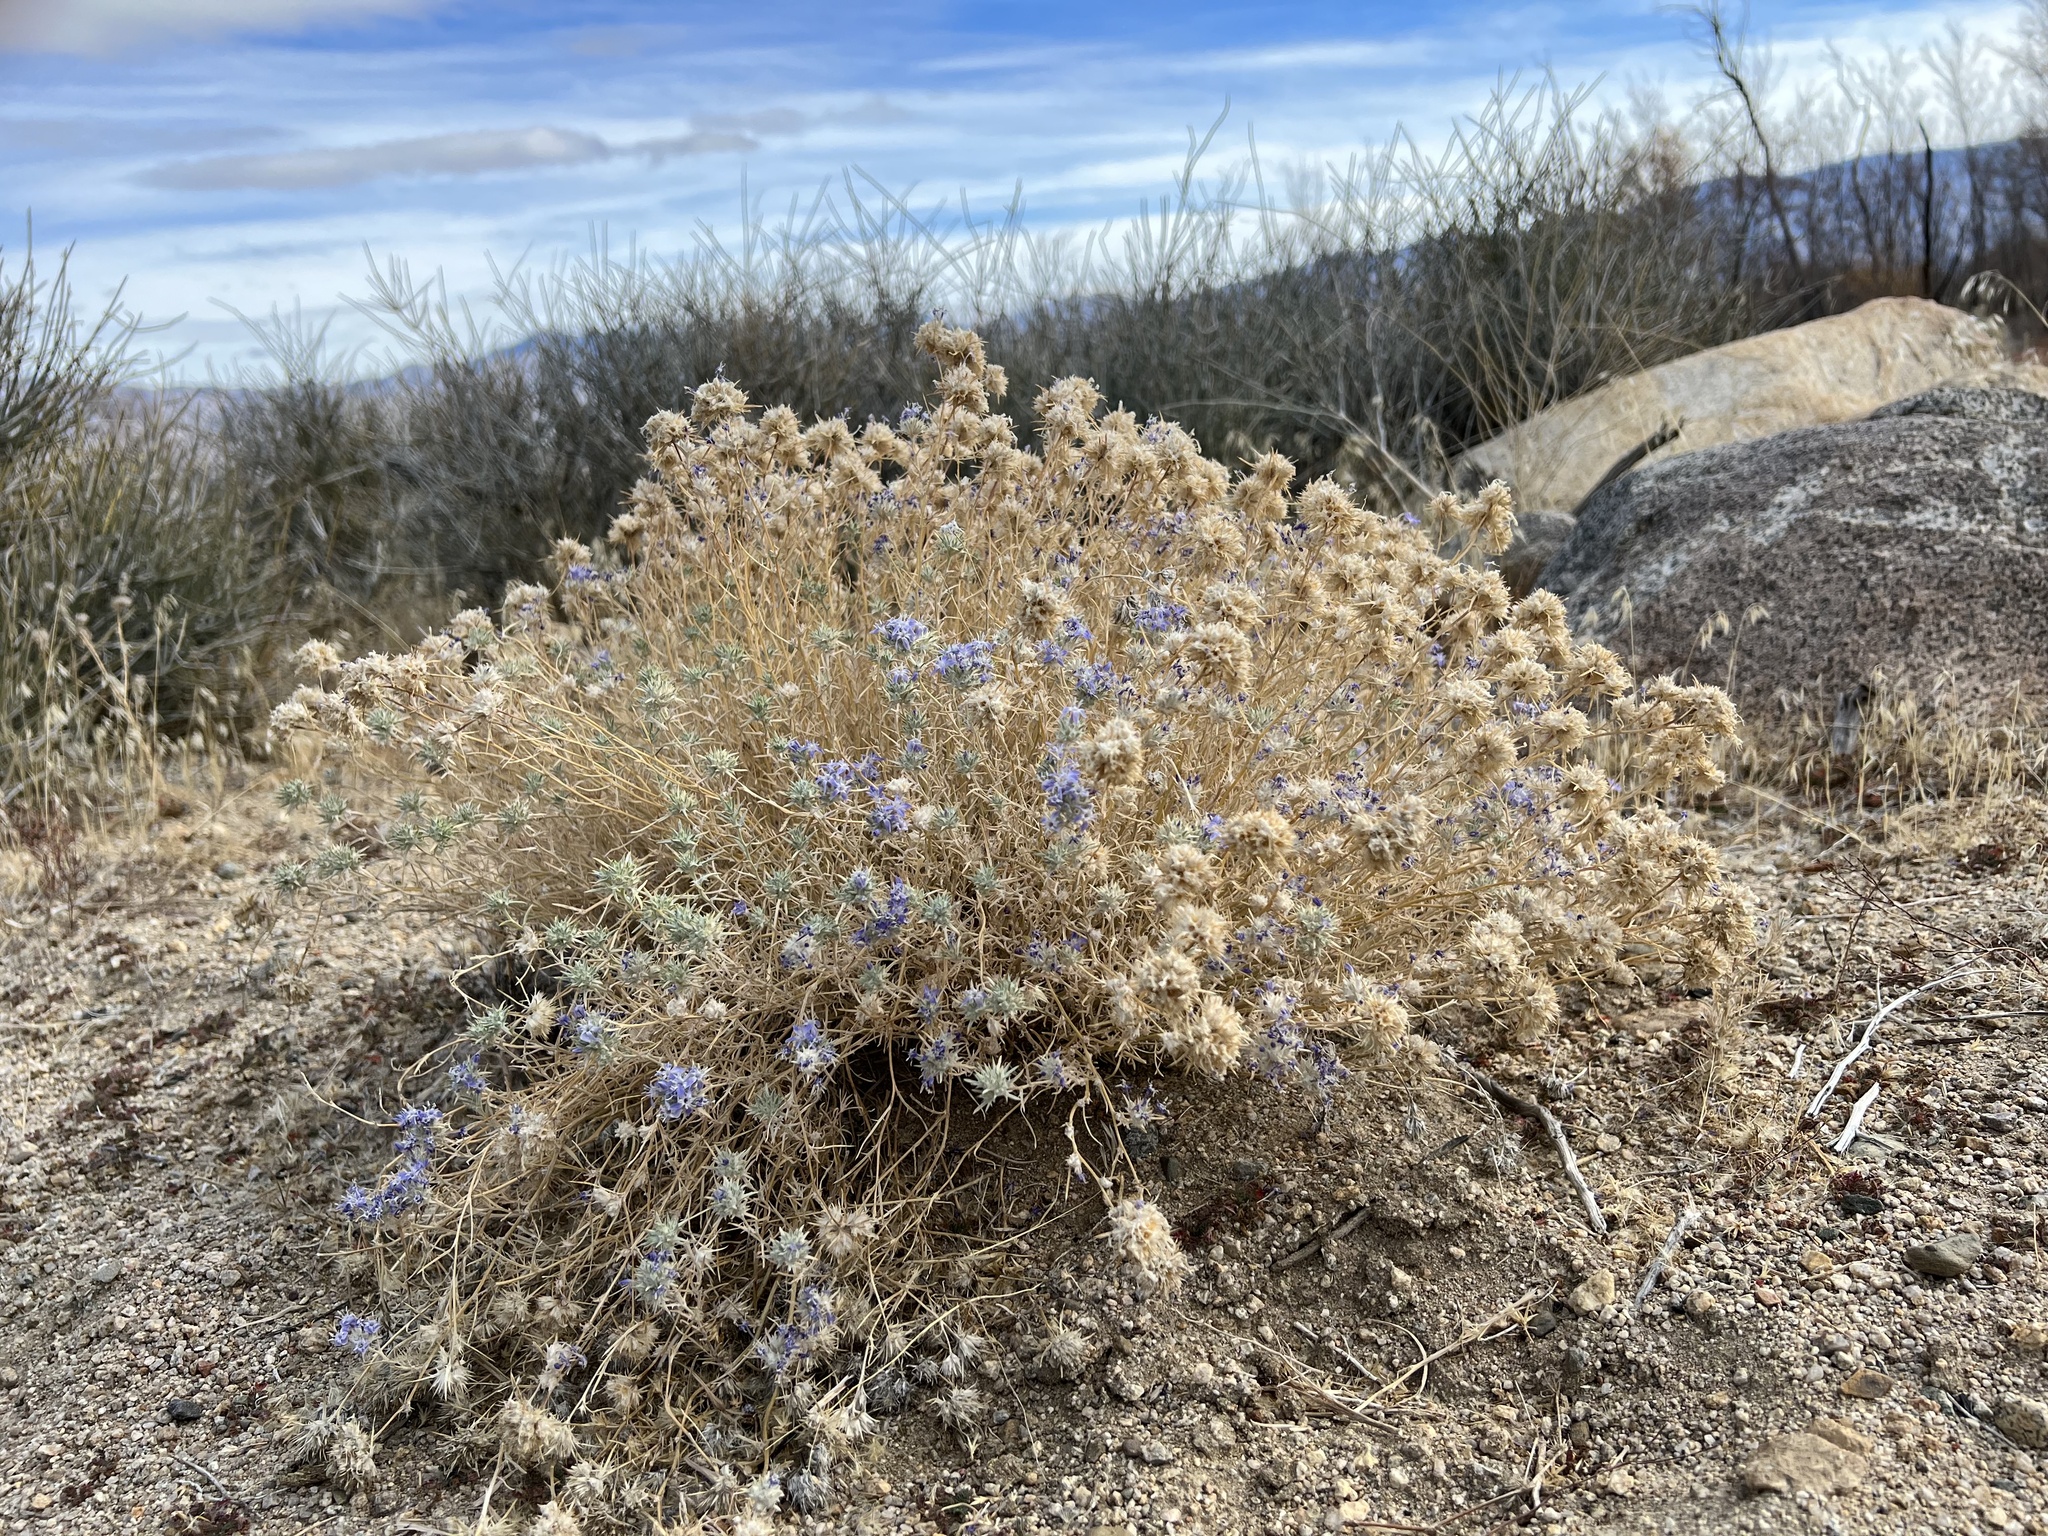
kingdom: Plantae
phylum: Tracheophyta
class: Magnoliopsida
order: Ericales
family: Polemoniaceae
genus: Eriastrum
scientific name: Eriastrum densifolium
